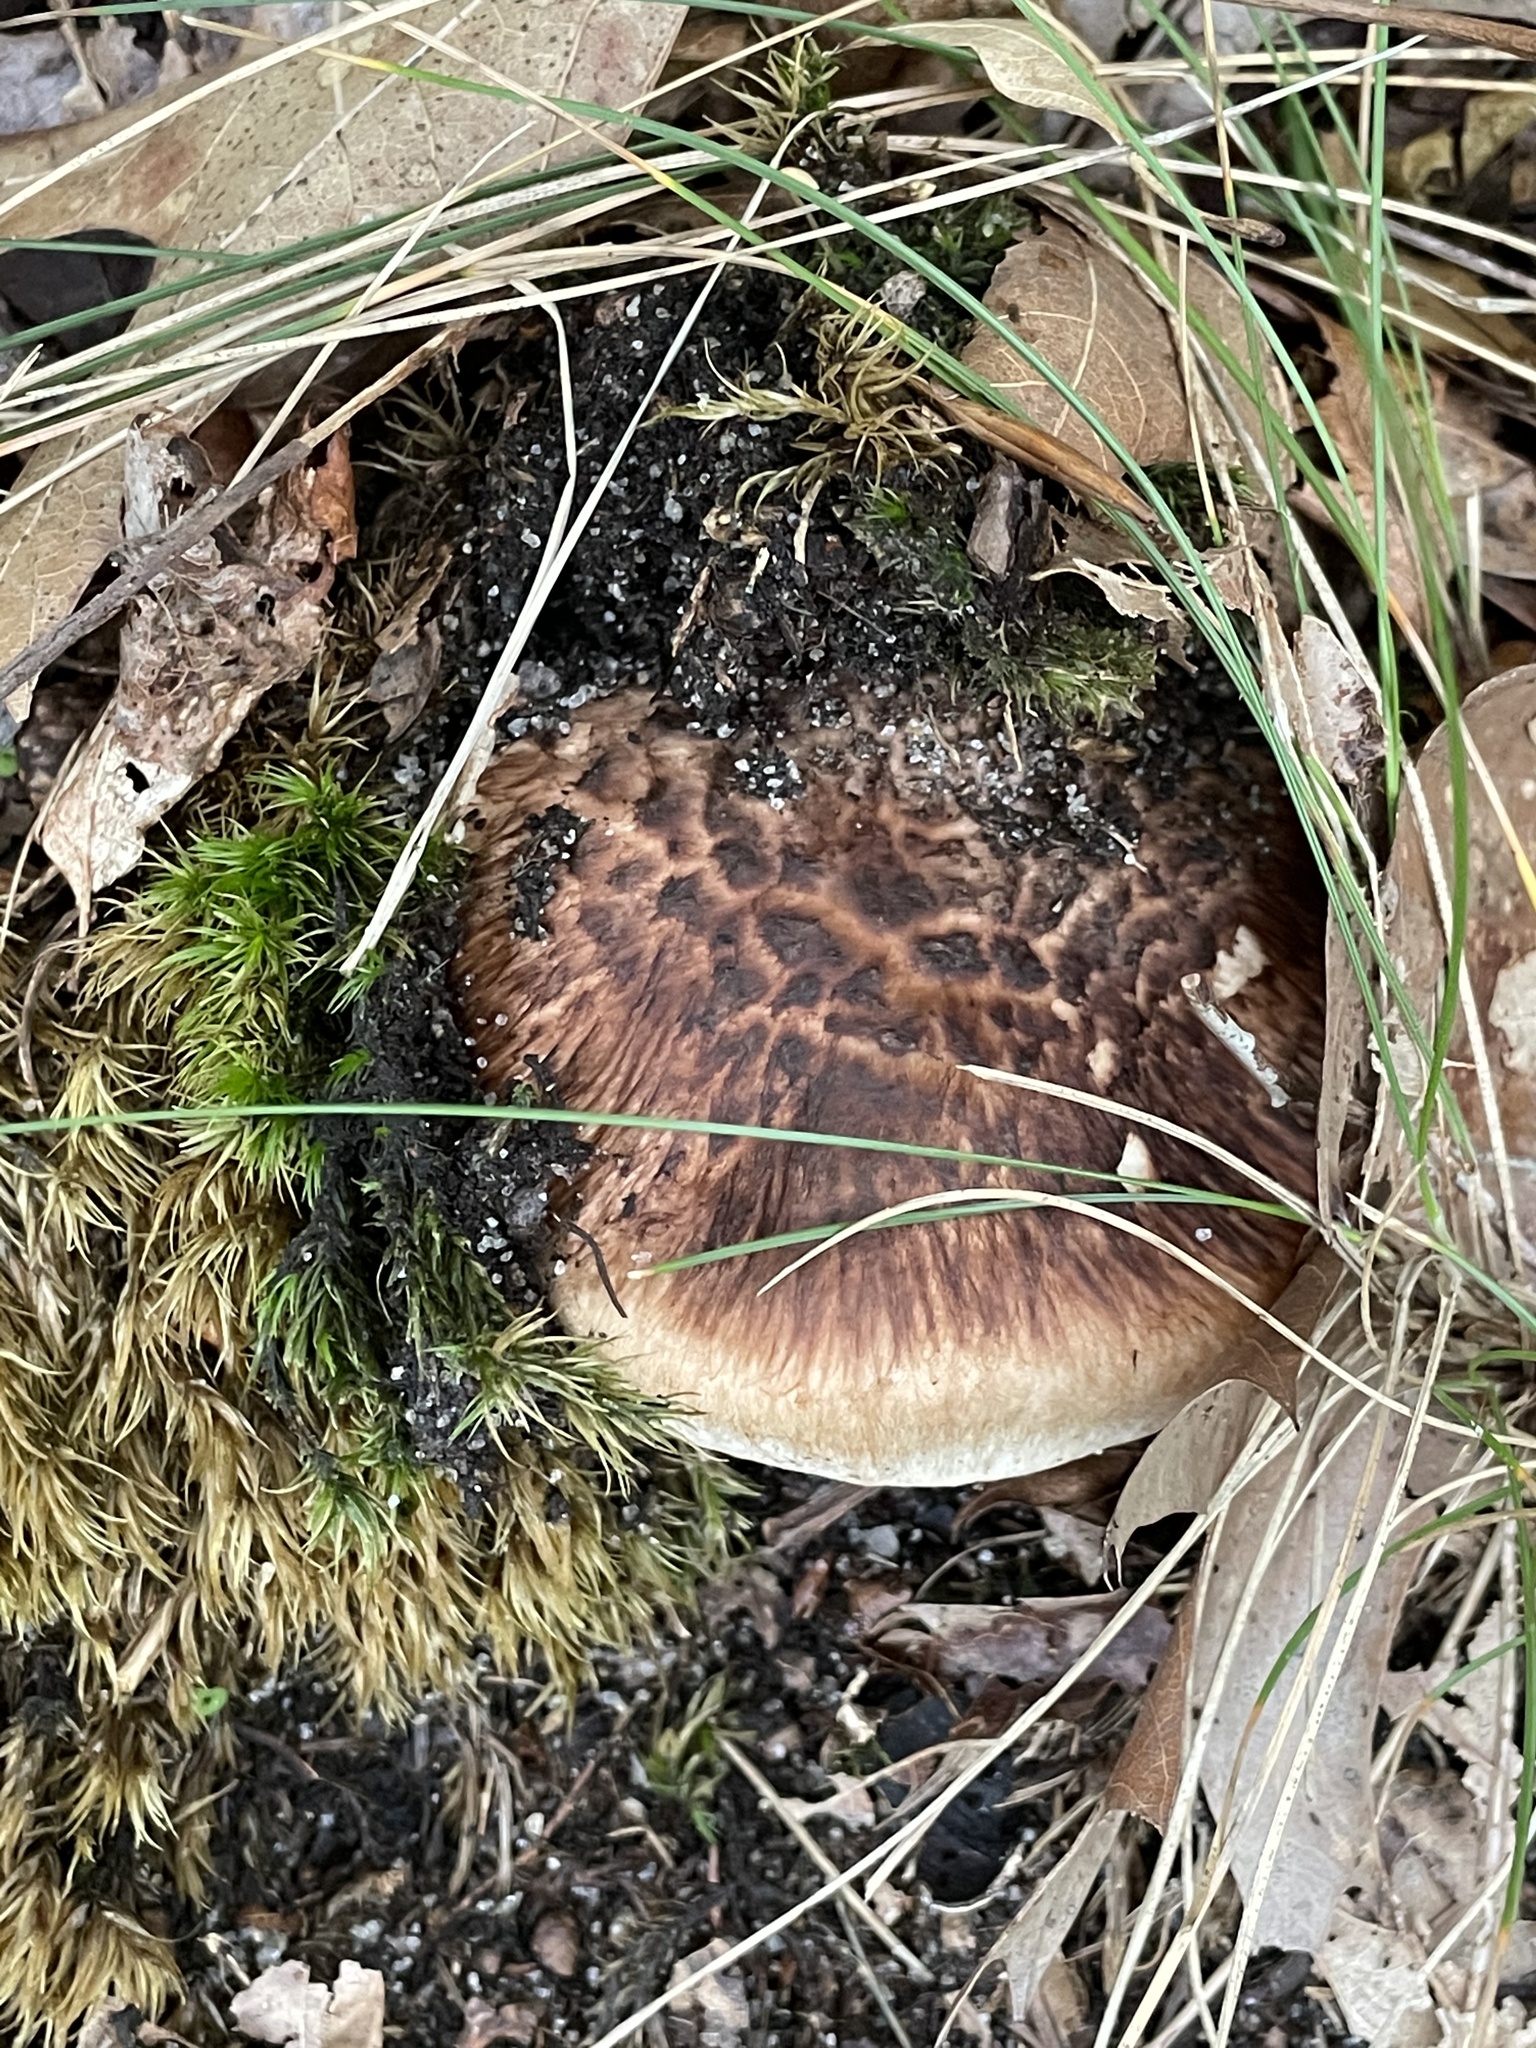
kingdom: Fungi
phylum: Basidiomycota
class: Agaricomycetes
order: Agaricales
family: Tricholomataceae
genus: Tricholoma
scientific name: Tricholoma caligatum
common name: True booted knight
